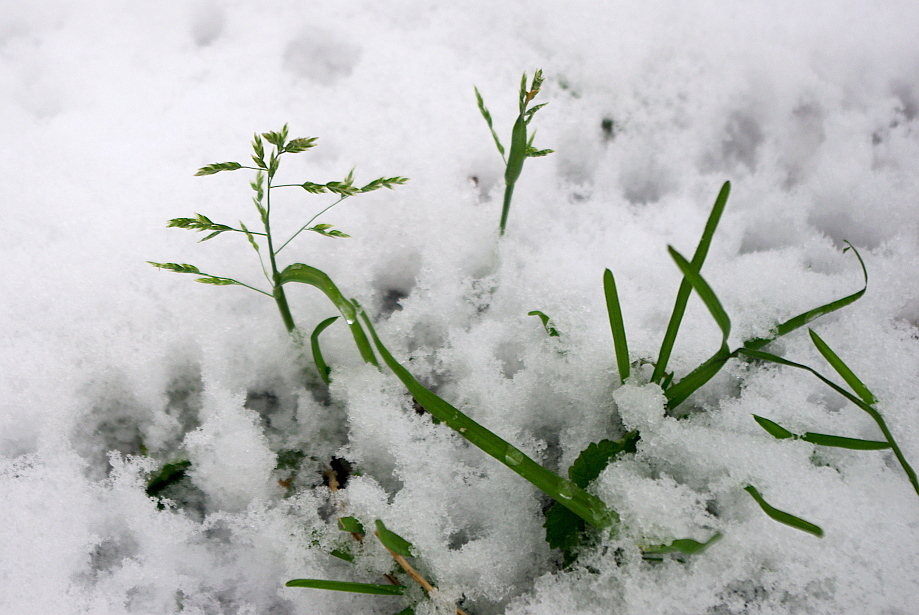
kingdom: Plantae
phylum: Tracheophyta
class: Liliopsida
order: Poales
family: Poaceae
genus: Poa
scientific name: Poa annua
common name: Annual bluegrass
